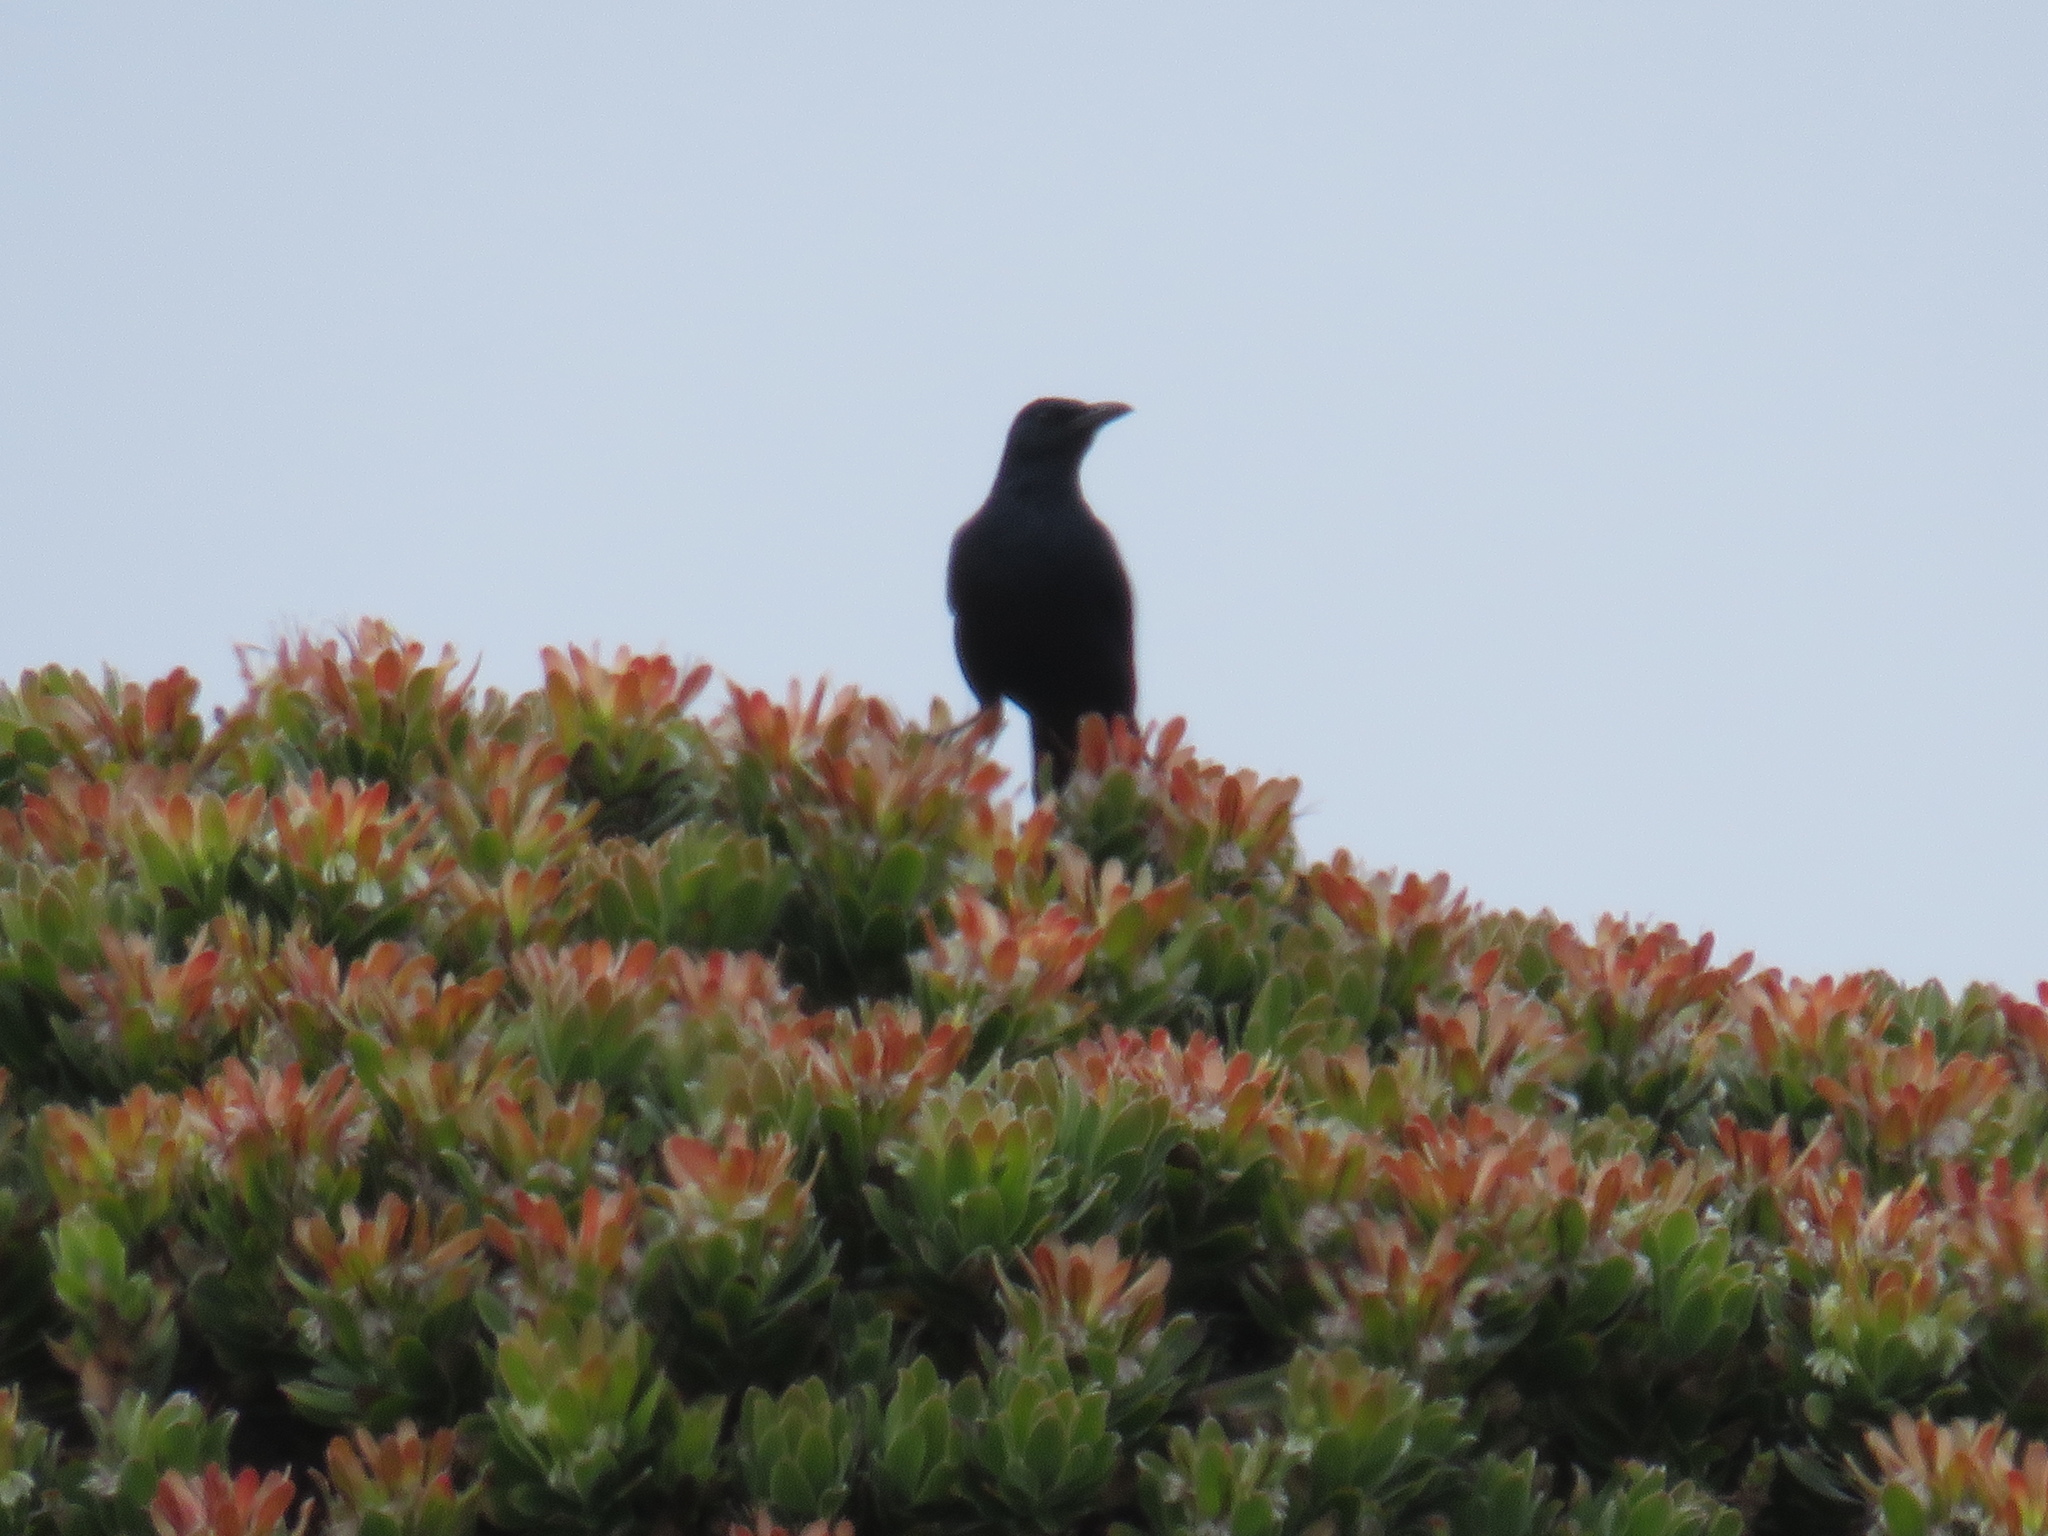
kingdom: Animalia
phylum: Chordata
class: Aves
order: Passeriformes
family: Sturnidae
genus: Onychognathus
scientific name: Onychognathus morio
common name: Red-winged starling
